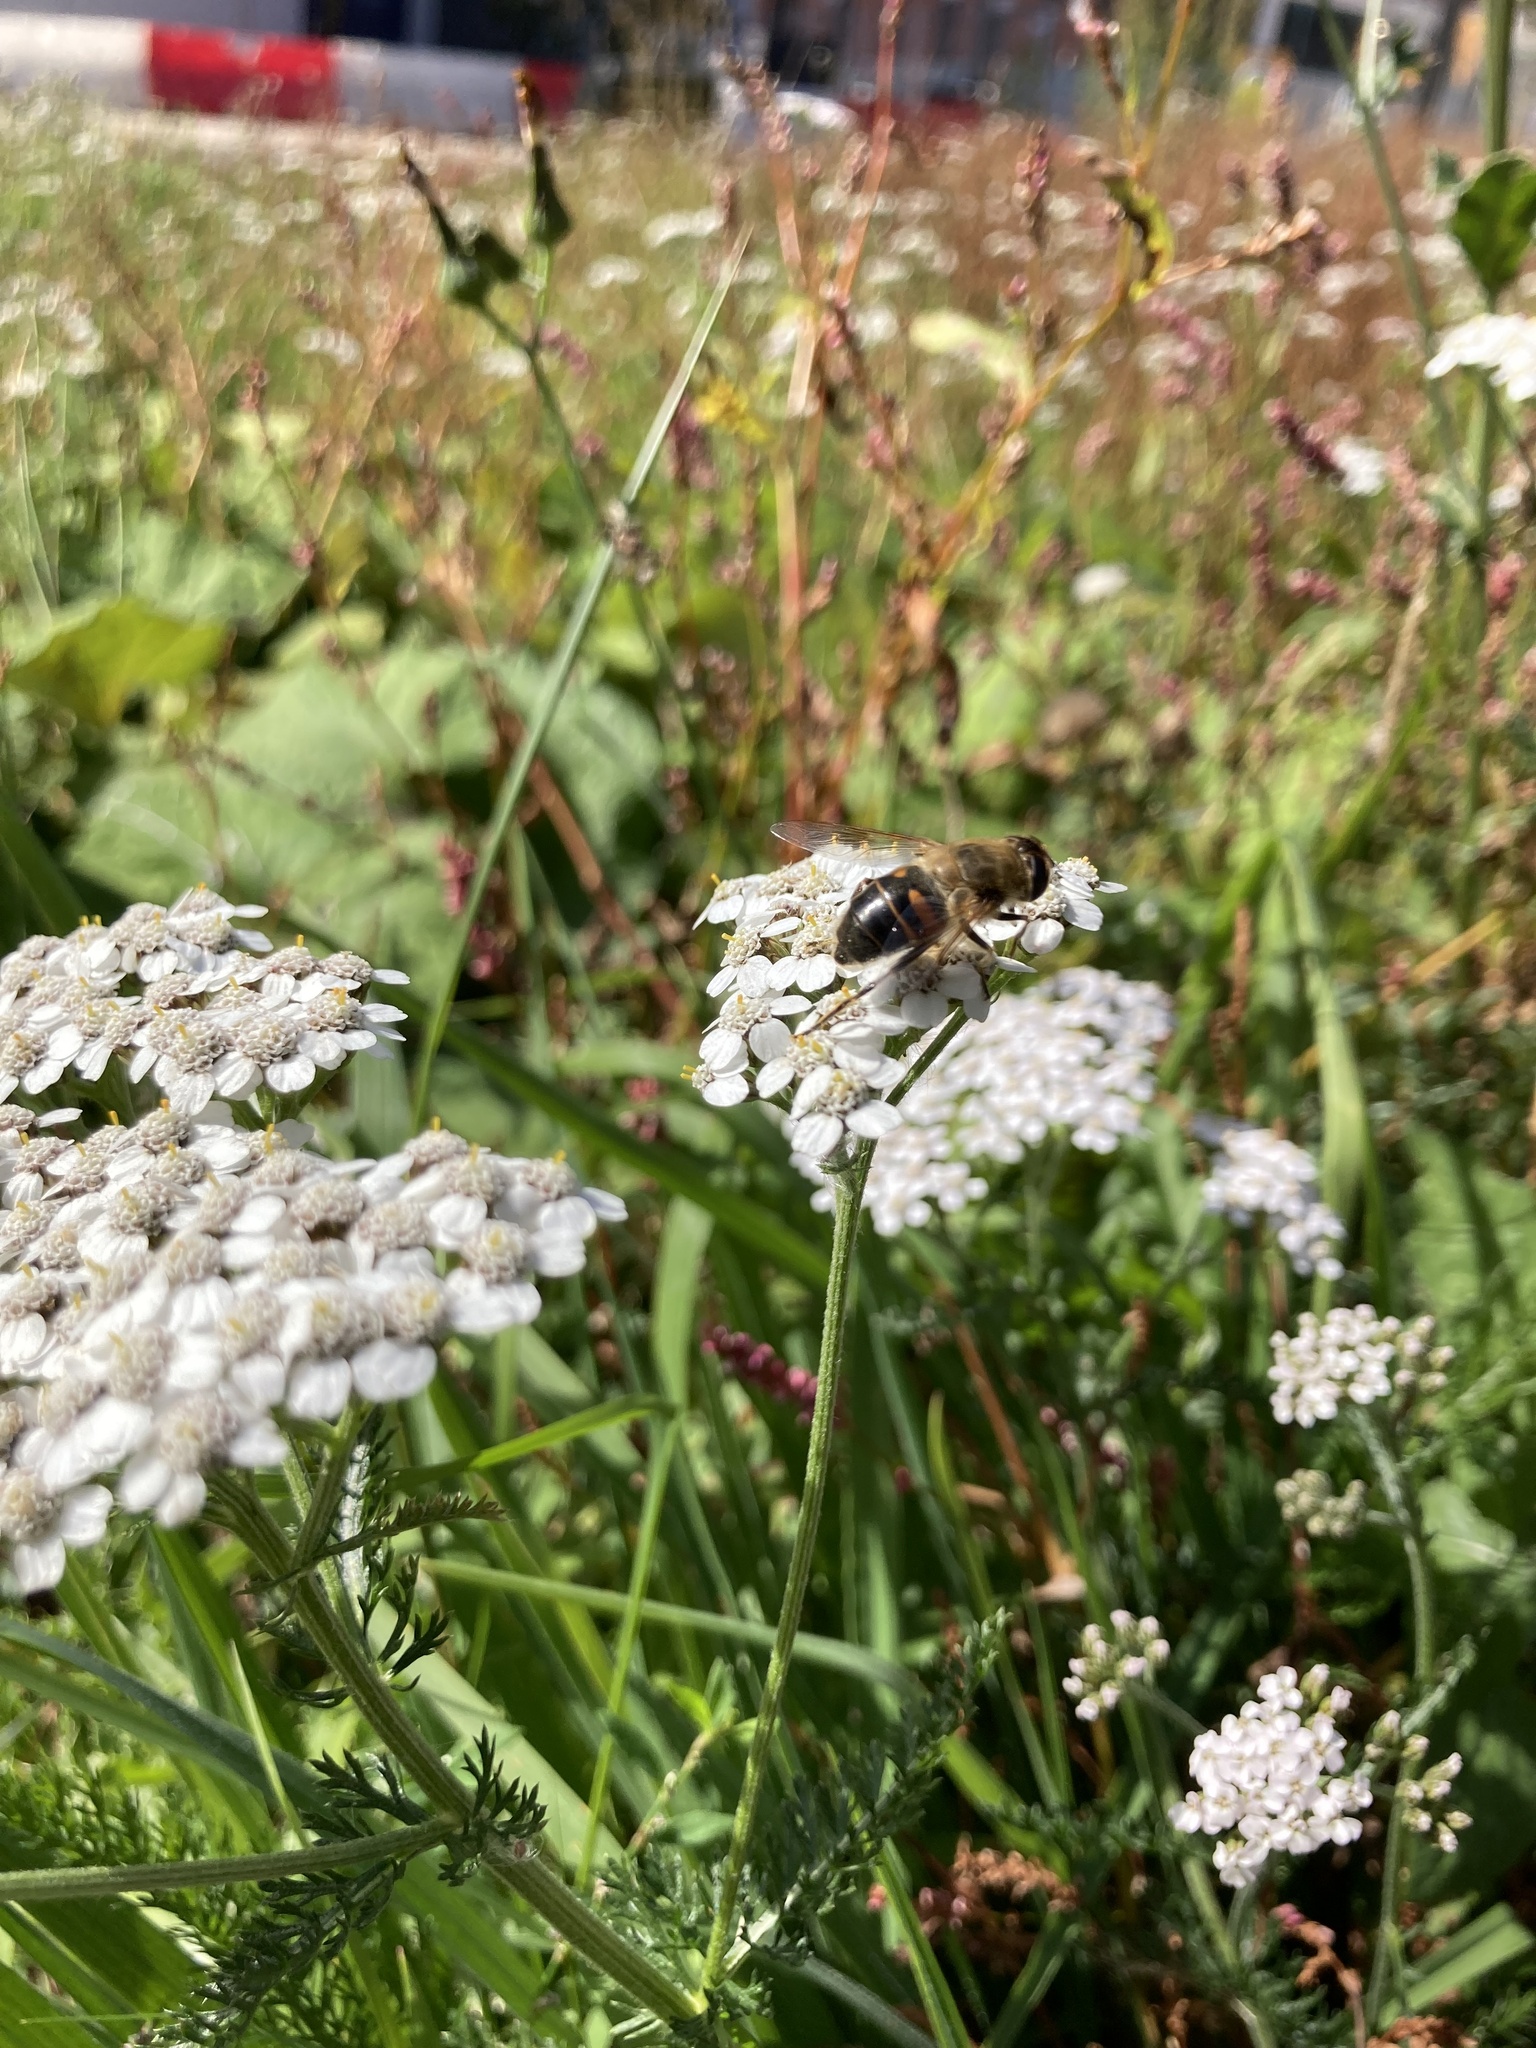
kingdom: Animalia
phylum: Arthropoda
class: Insecta
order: Diptera
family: Syrphidae
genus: Eristalis
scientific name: Eristalis nemorum
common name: Orange-spined drone fly
